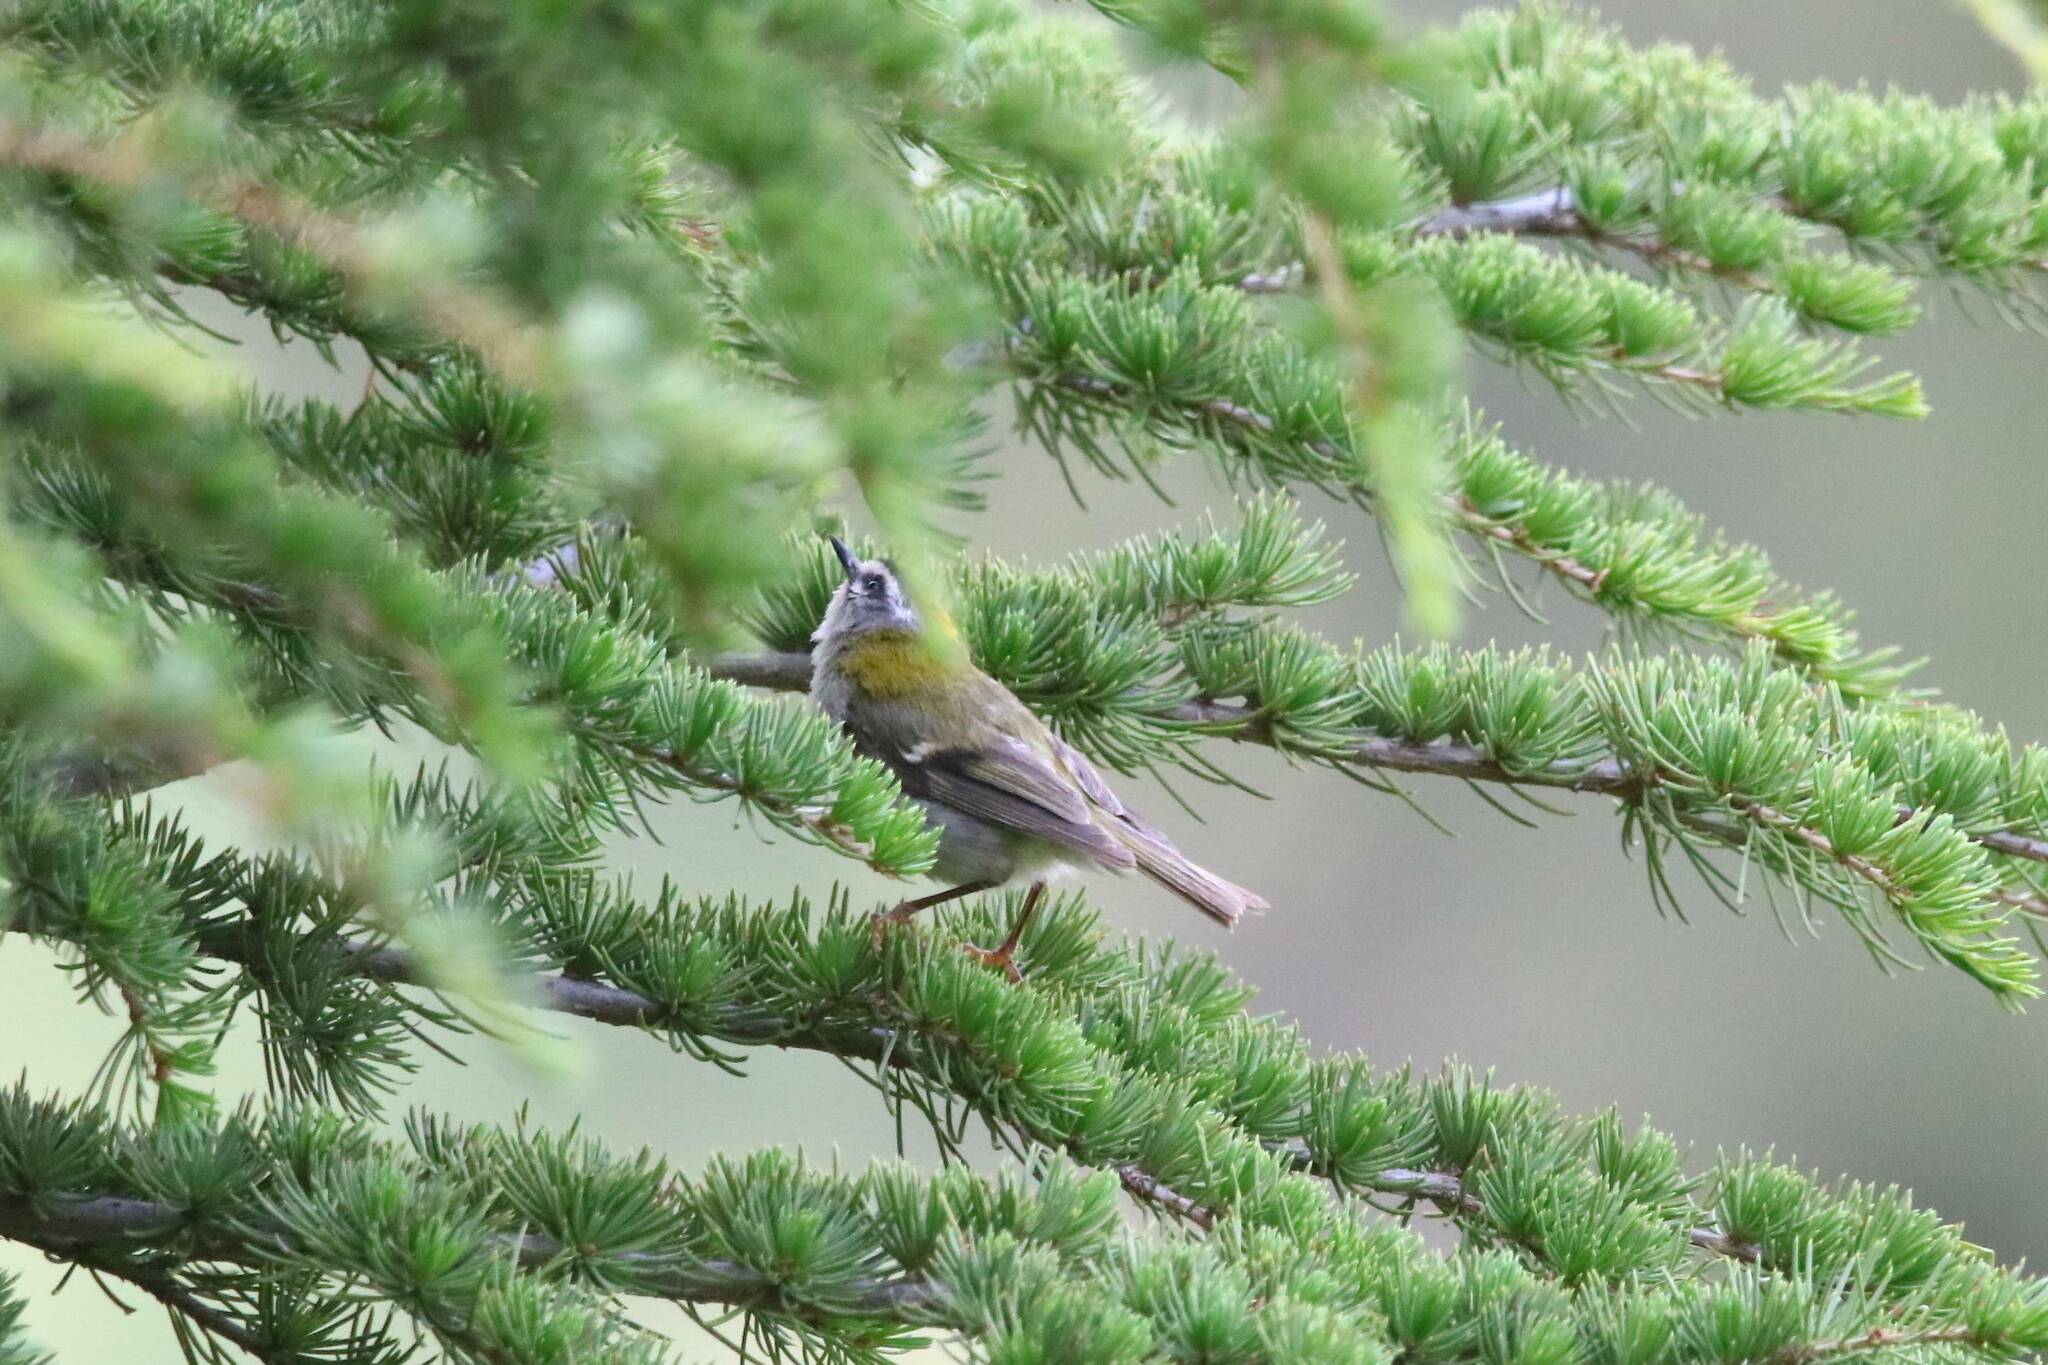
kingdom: Animalia
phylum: Chordata
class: Aves
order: Passeriformes
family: Regulidae
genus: Regulus
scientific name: Regulus ignicapilla
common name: Firecrest
